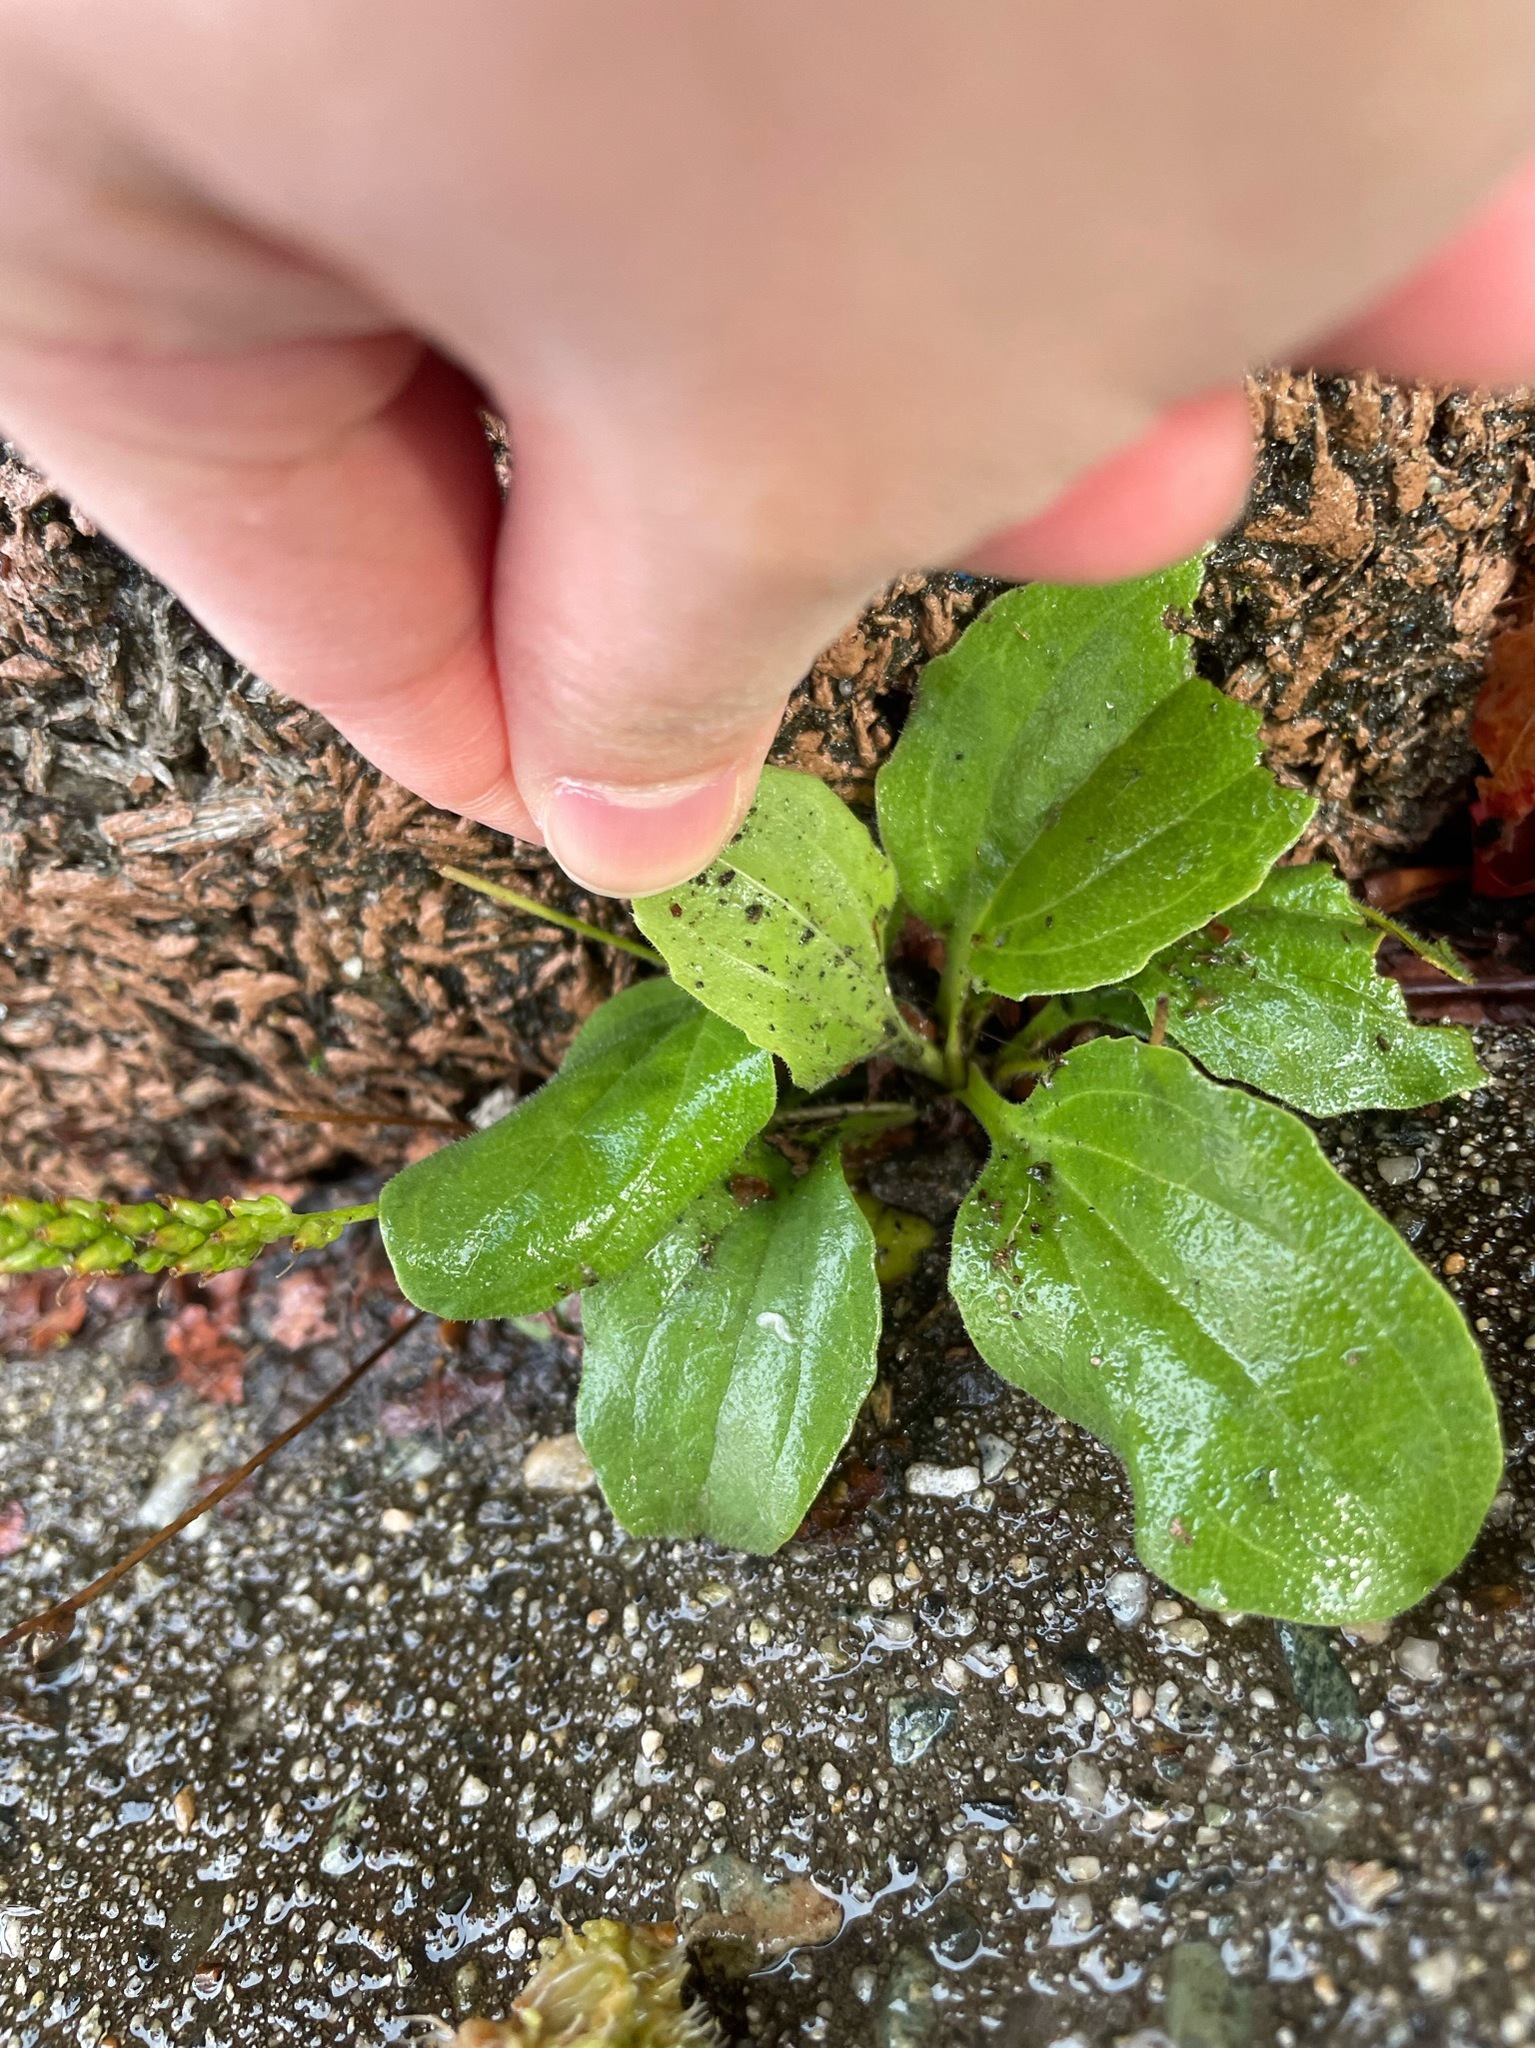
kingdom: Plantae
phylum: Tracheophyta
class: Magnoliopsida
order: Lamiales
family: Plantaginaceae
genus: Plantago
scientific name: Plantago major
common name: Common plantain
